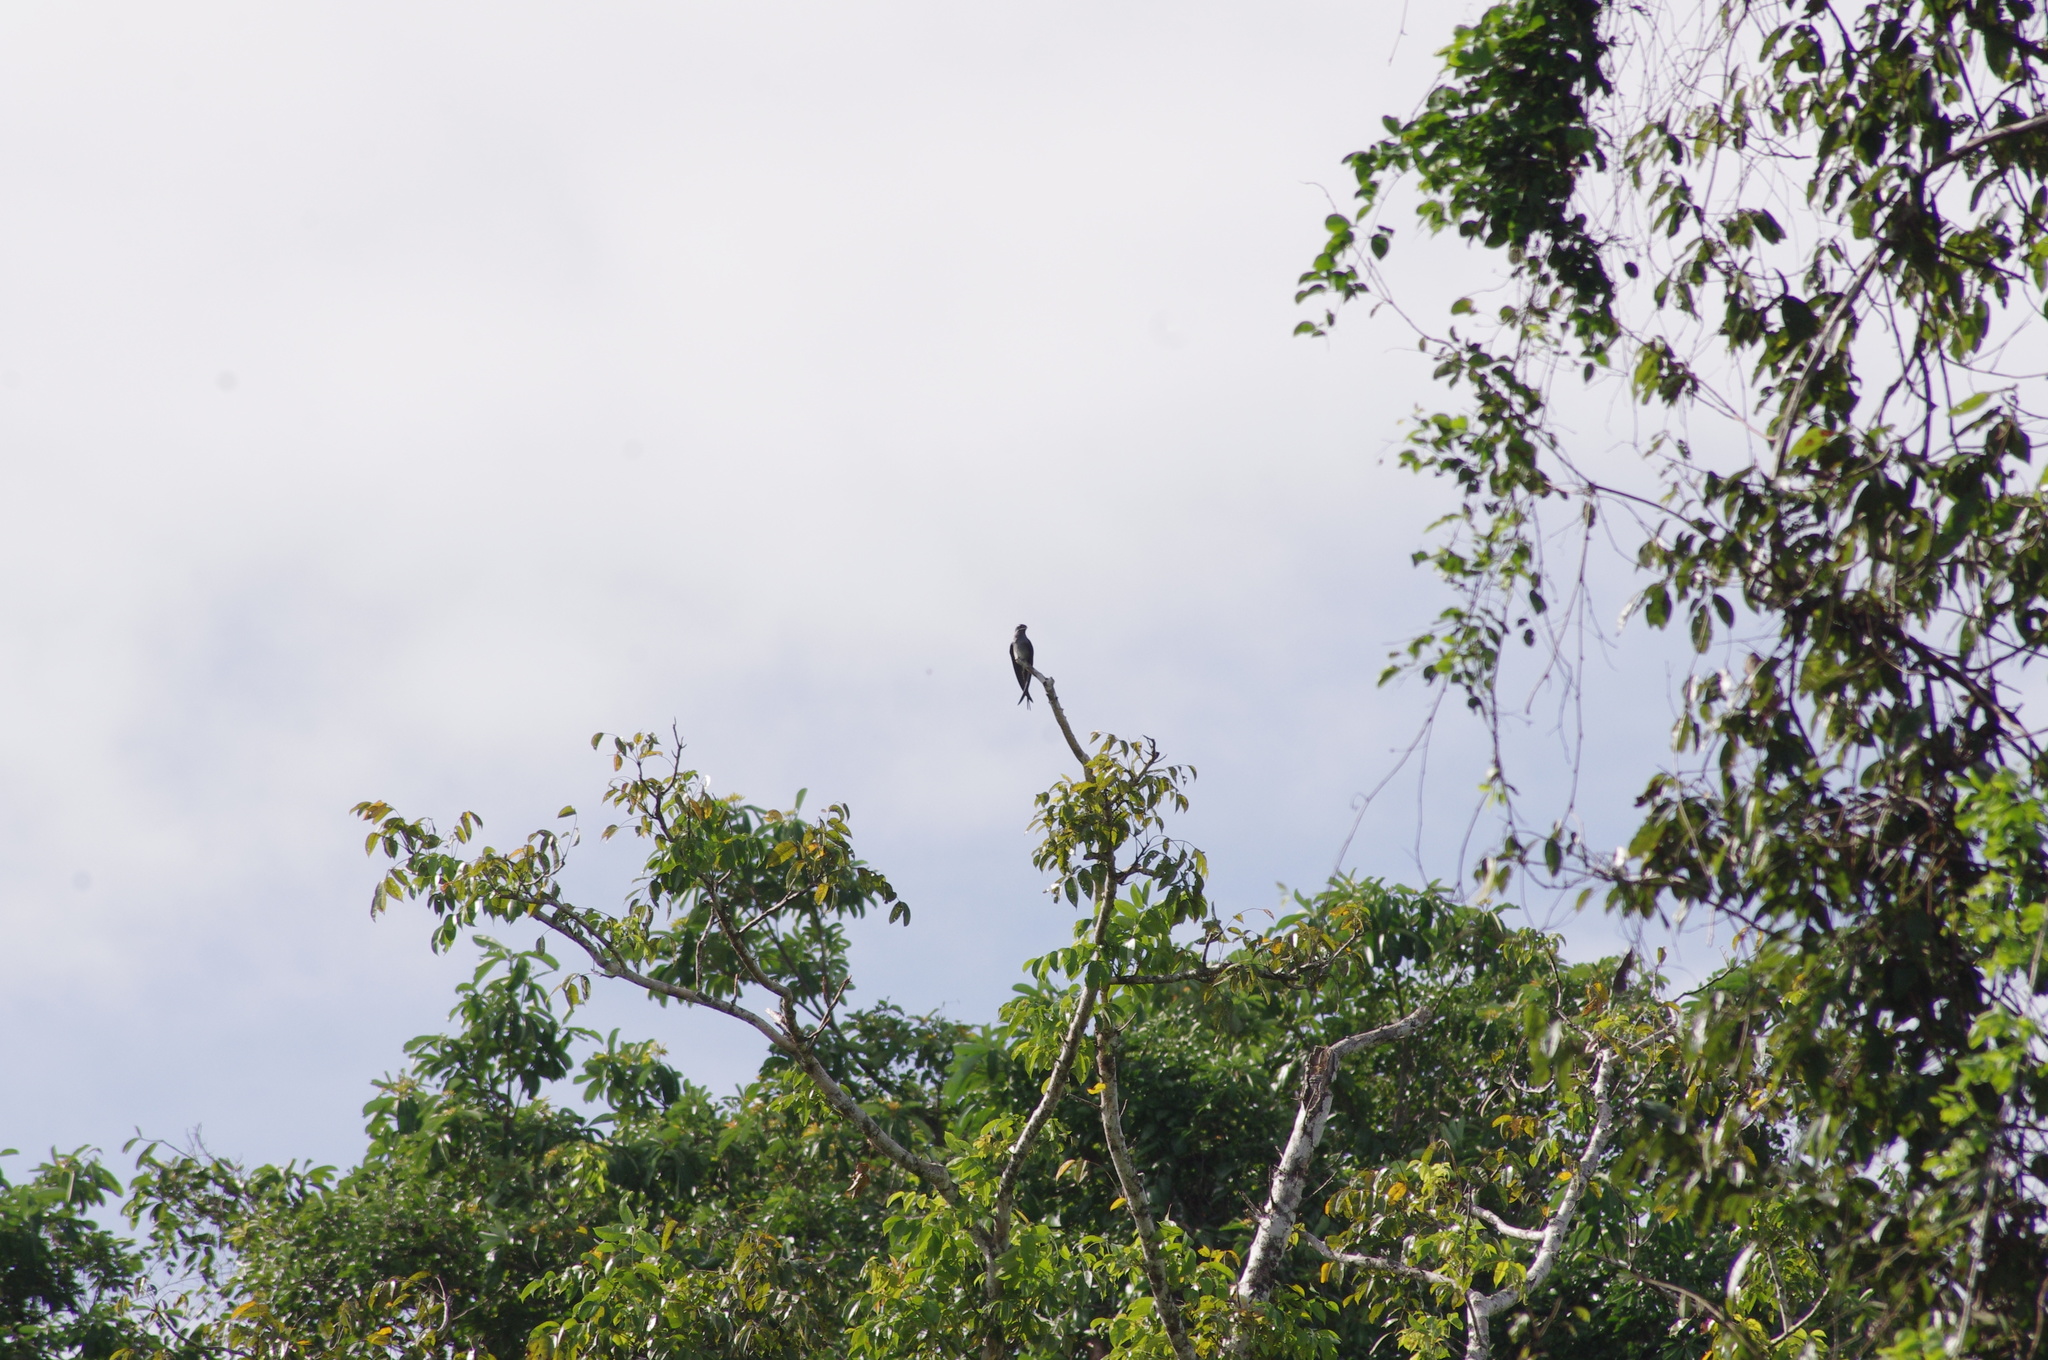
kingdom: Animalia
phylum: Chordata
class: Aves
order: Apodiformes
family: Hemiprocnidae
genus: Hemiprocne
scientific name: Hemiprocne mystacea
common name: Moustached treeswift
